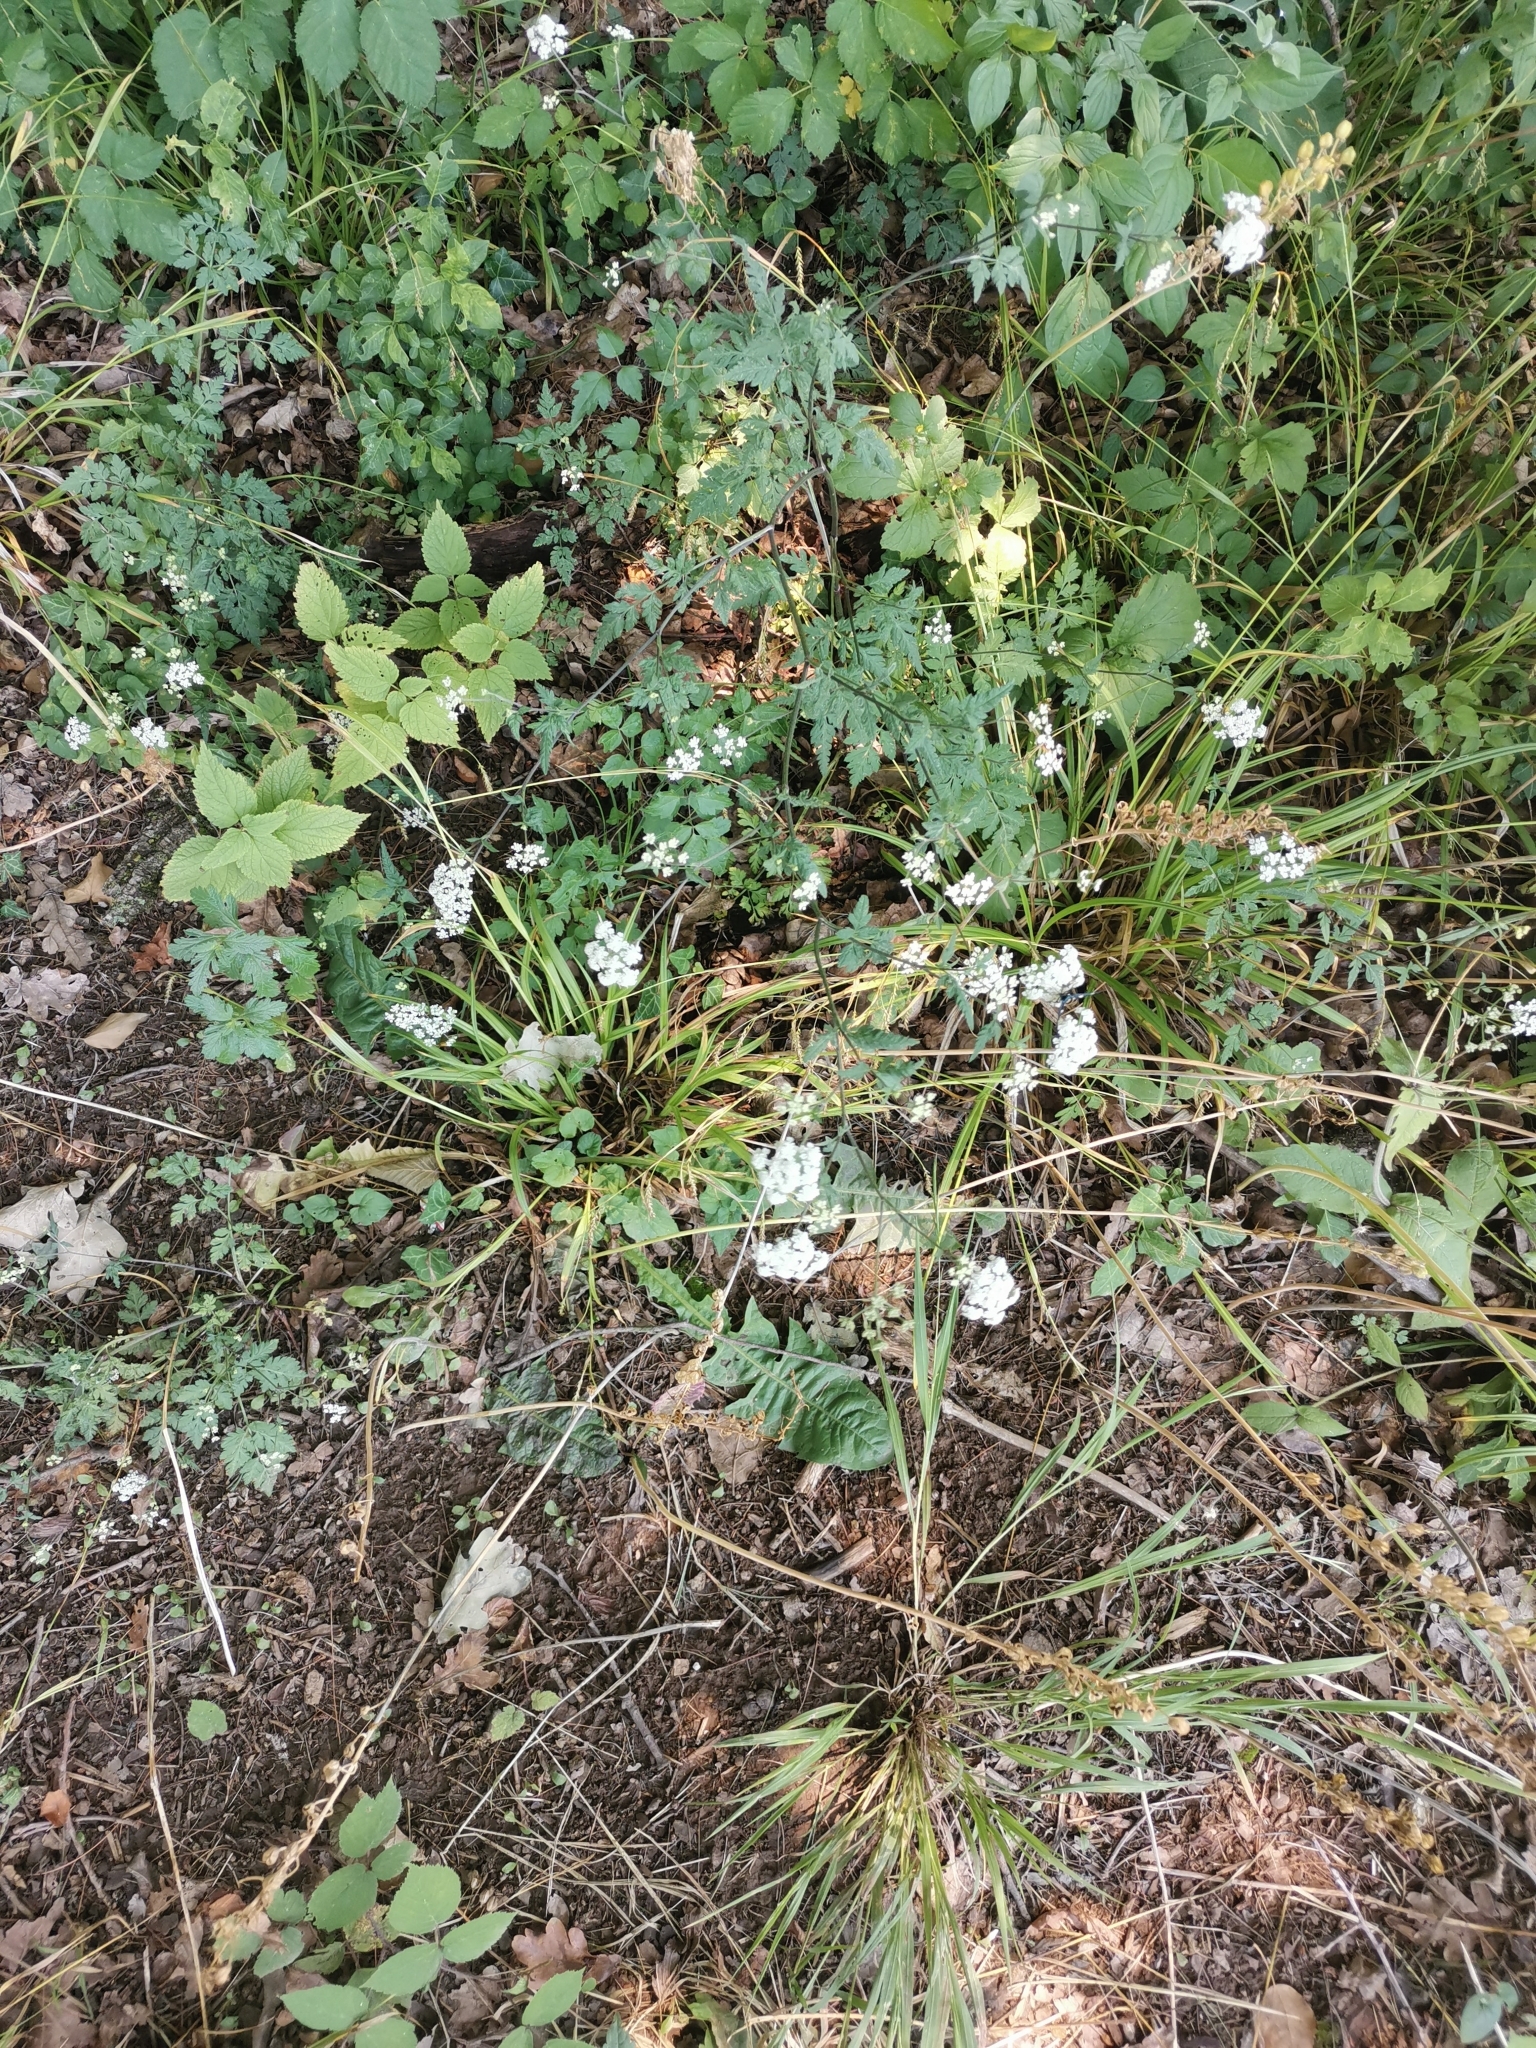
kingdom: Plantae
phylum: Tracheophyta
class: Magnoliopsida
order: Apiales
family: Apiaceae
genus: Torilis
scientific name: Torilis arvensis
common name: Spreading hedge-parsley
